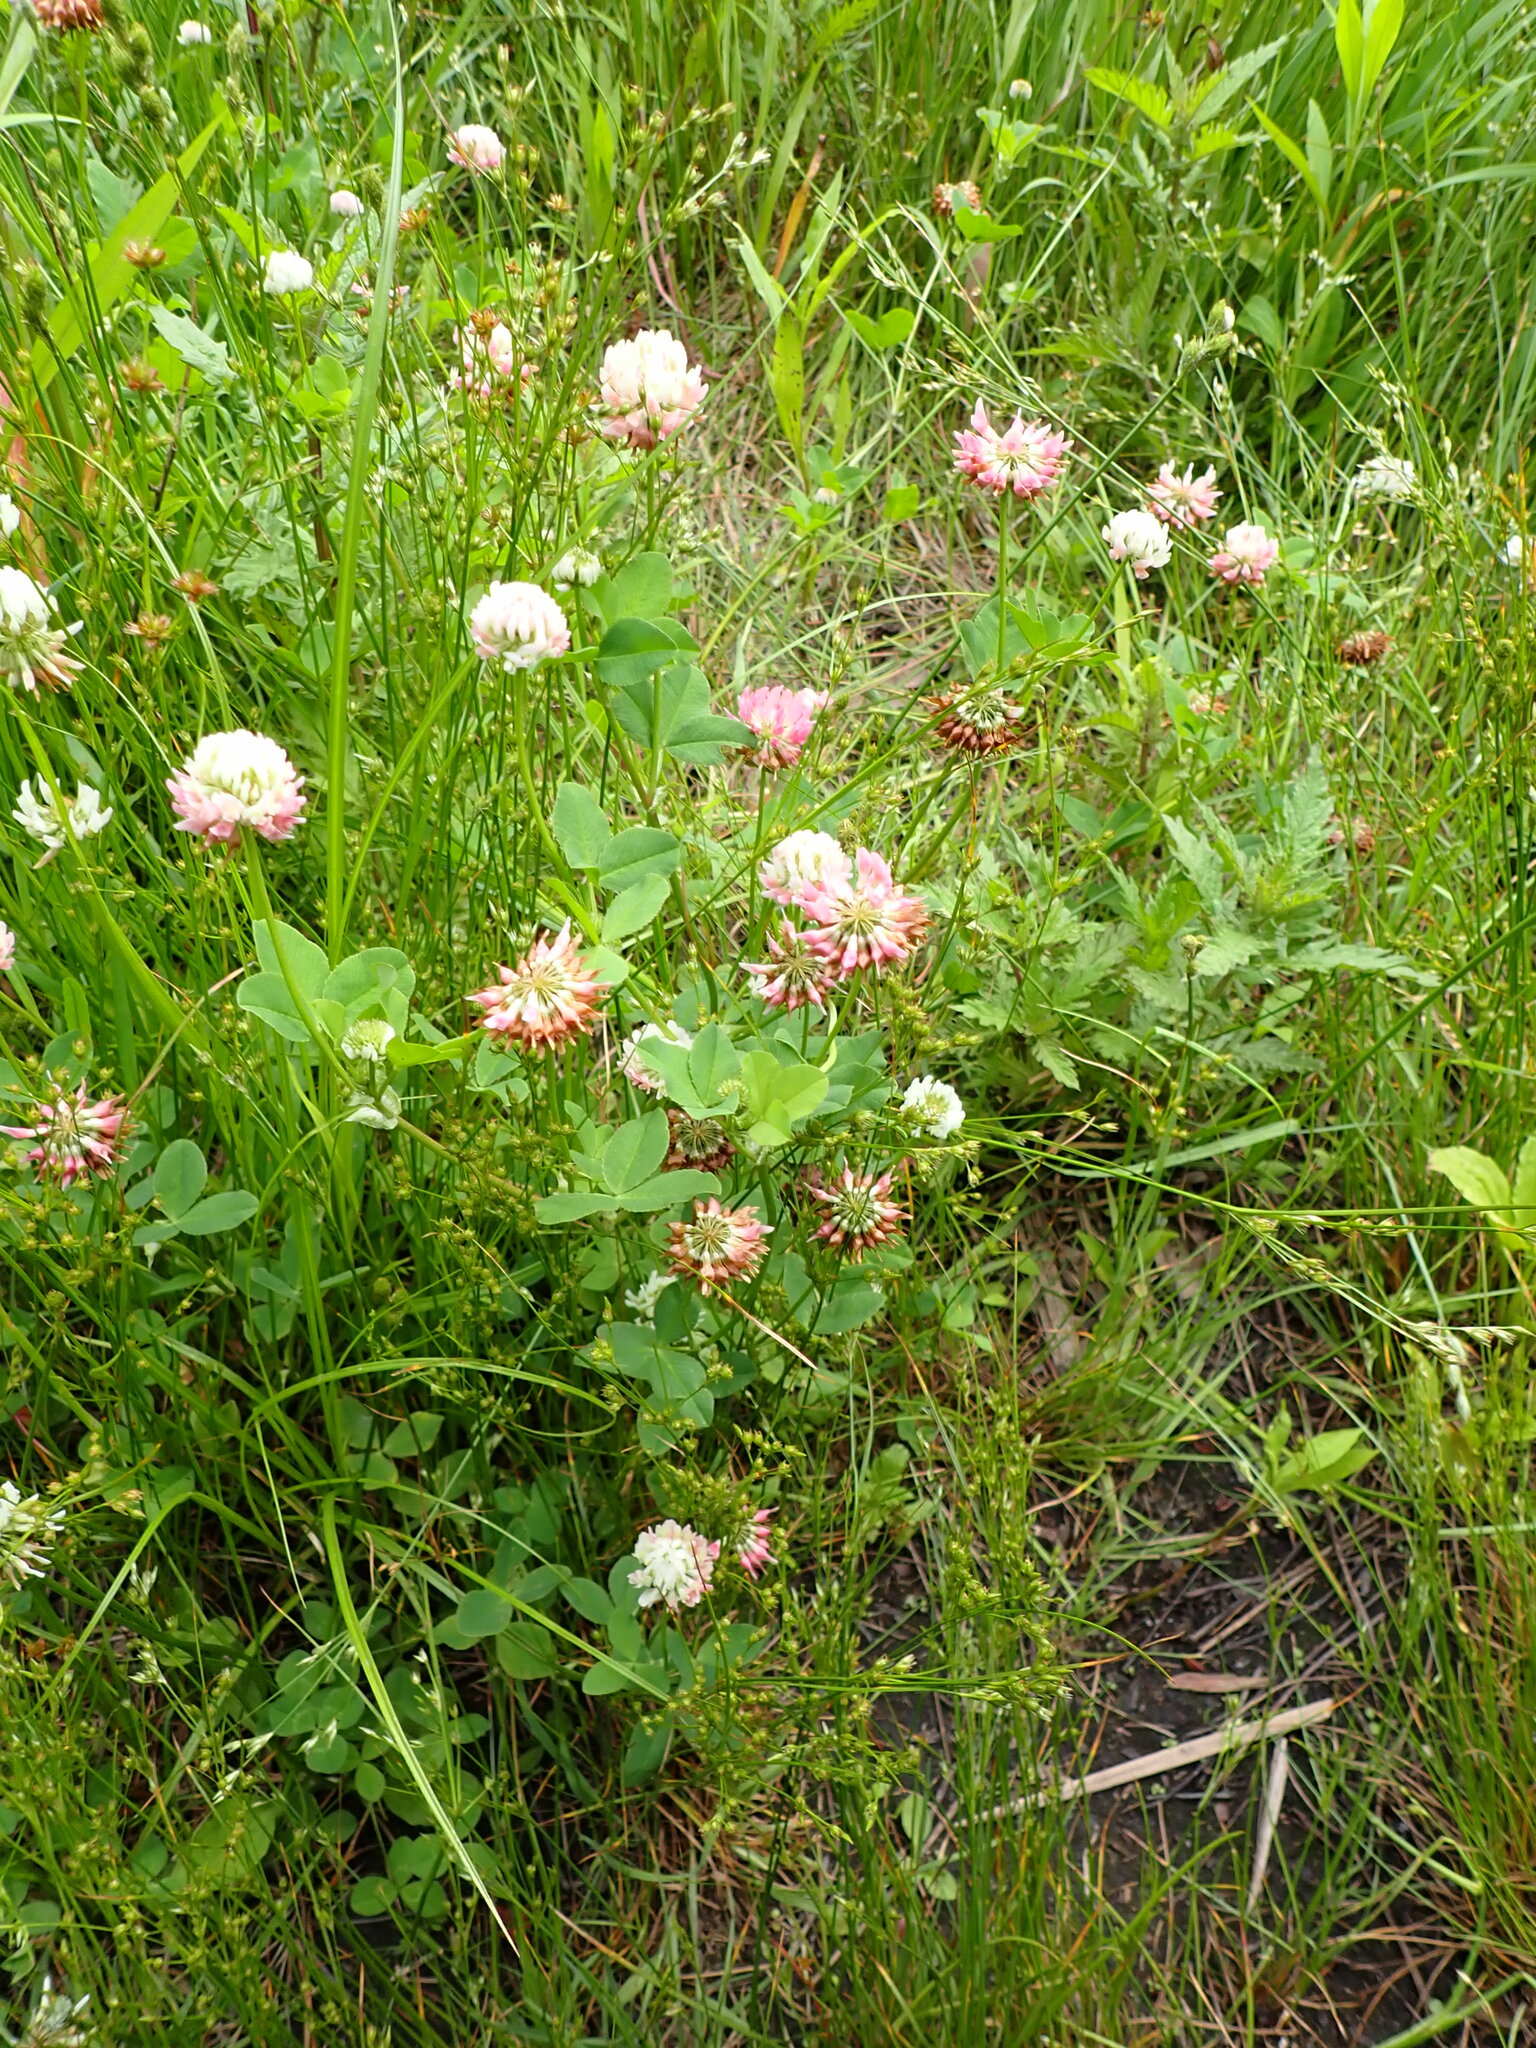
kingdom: Plantae
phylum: Tracheophyta
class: Magnoliopsida
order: Fabales
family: Fabaceae
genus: Trifolium
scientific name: Trifolium hybridum
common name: Alsike clover
